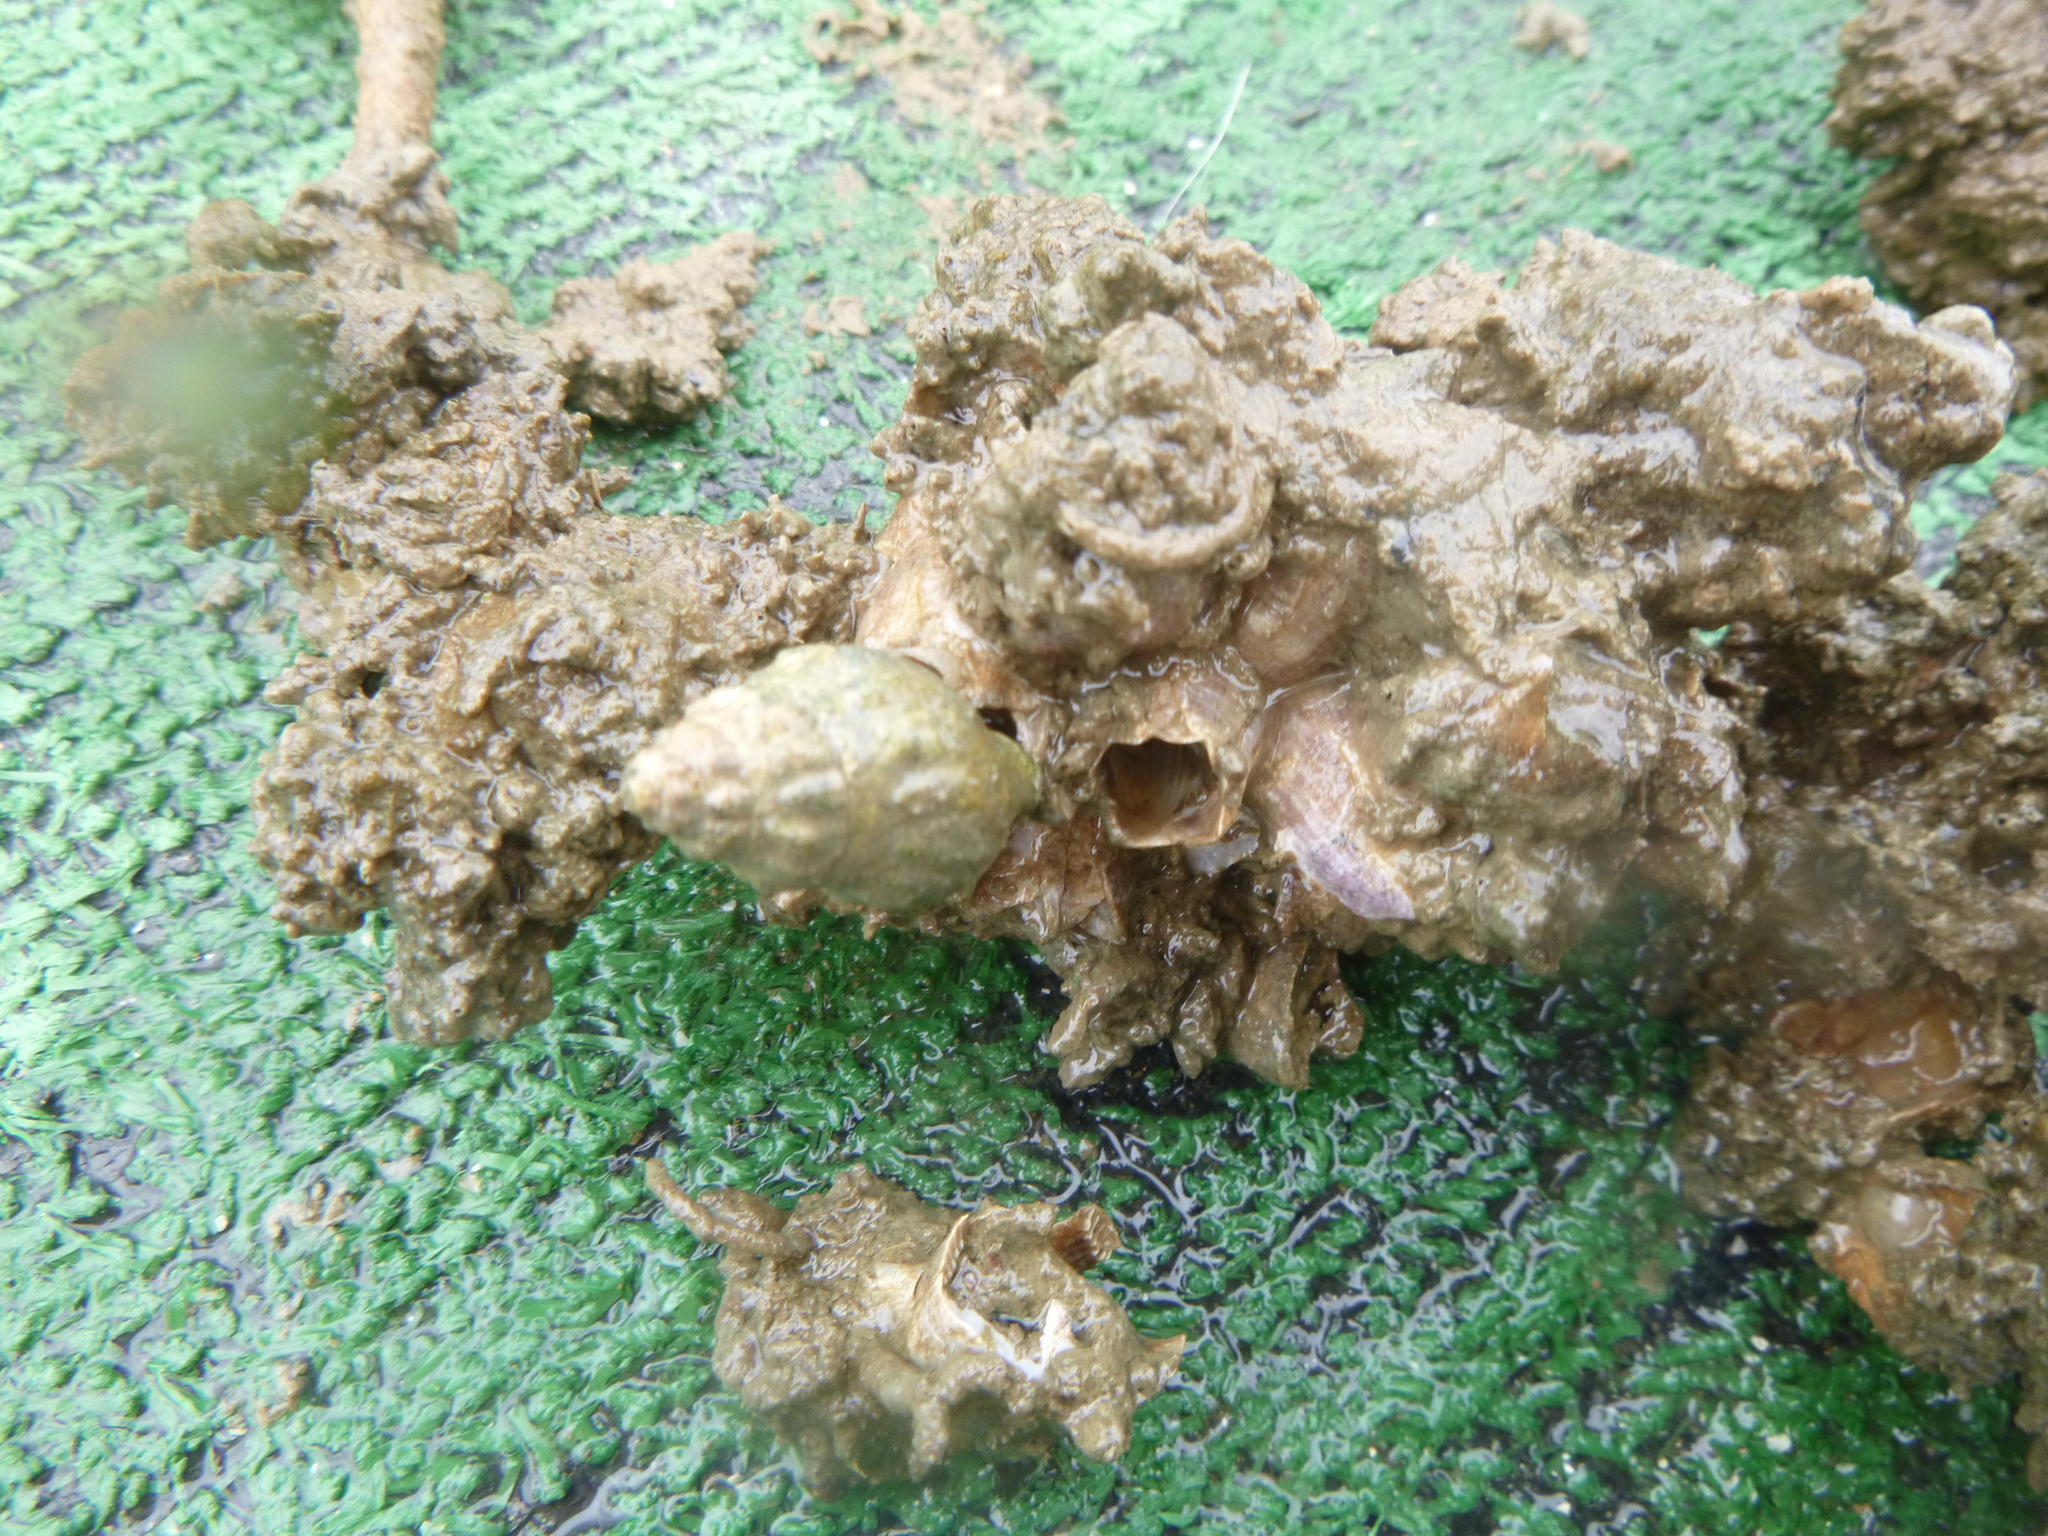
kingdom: Animalia
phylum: Arthropoda
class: Maxillopoda
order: Sessilia
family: Balanidae
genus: Fistulobalanus
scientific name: Fistulobalanus kondakovi
